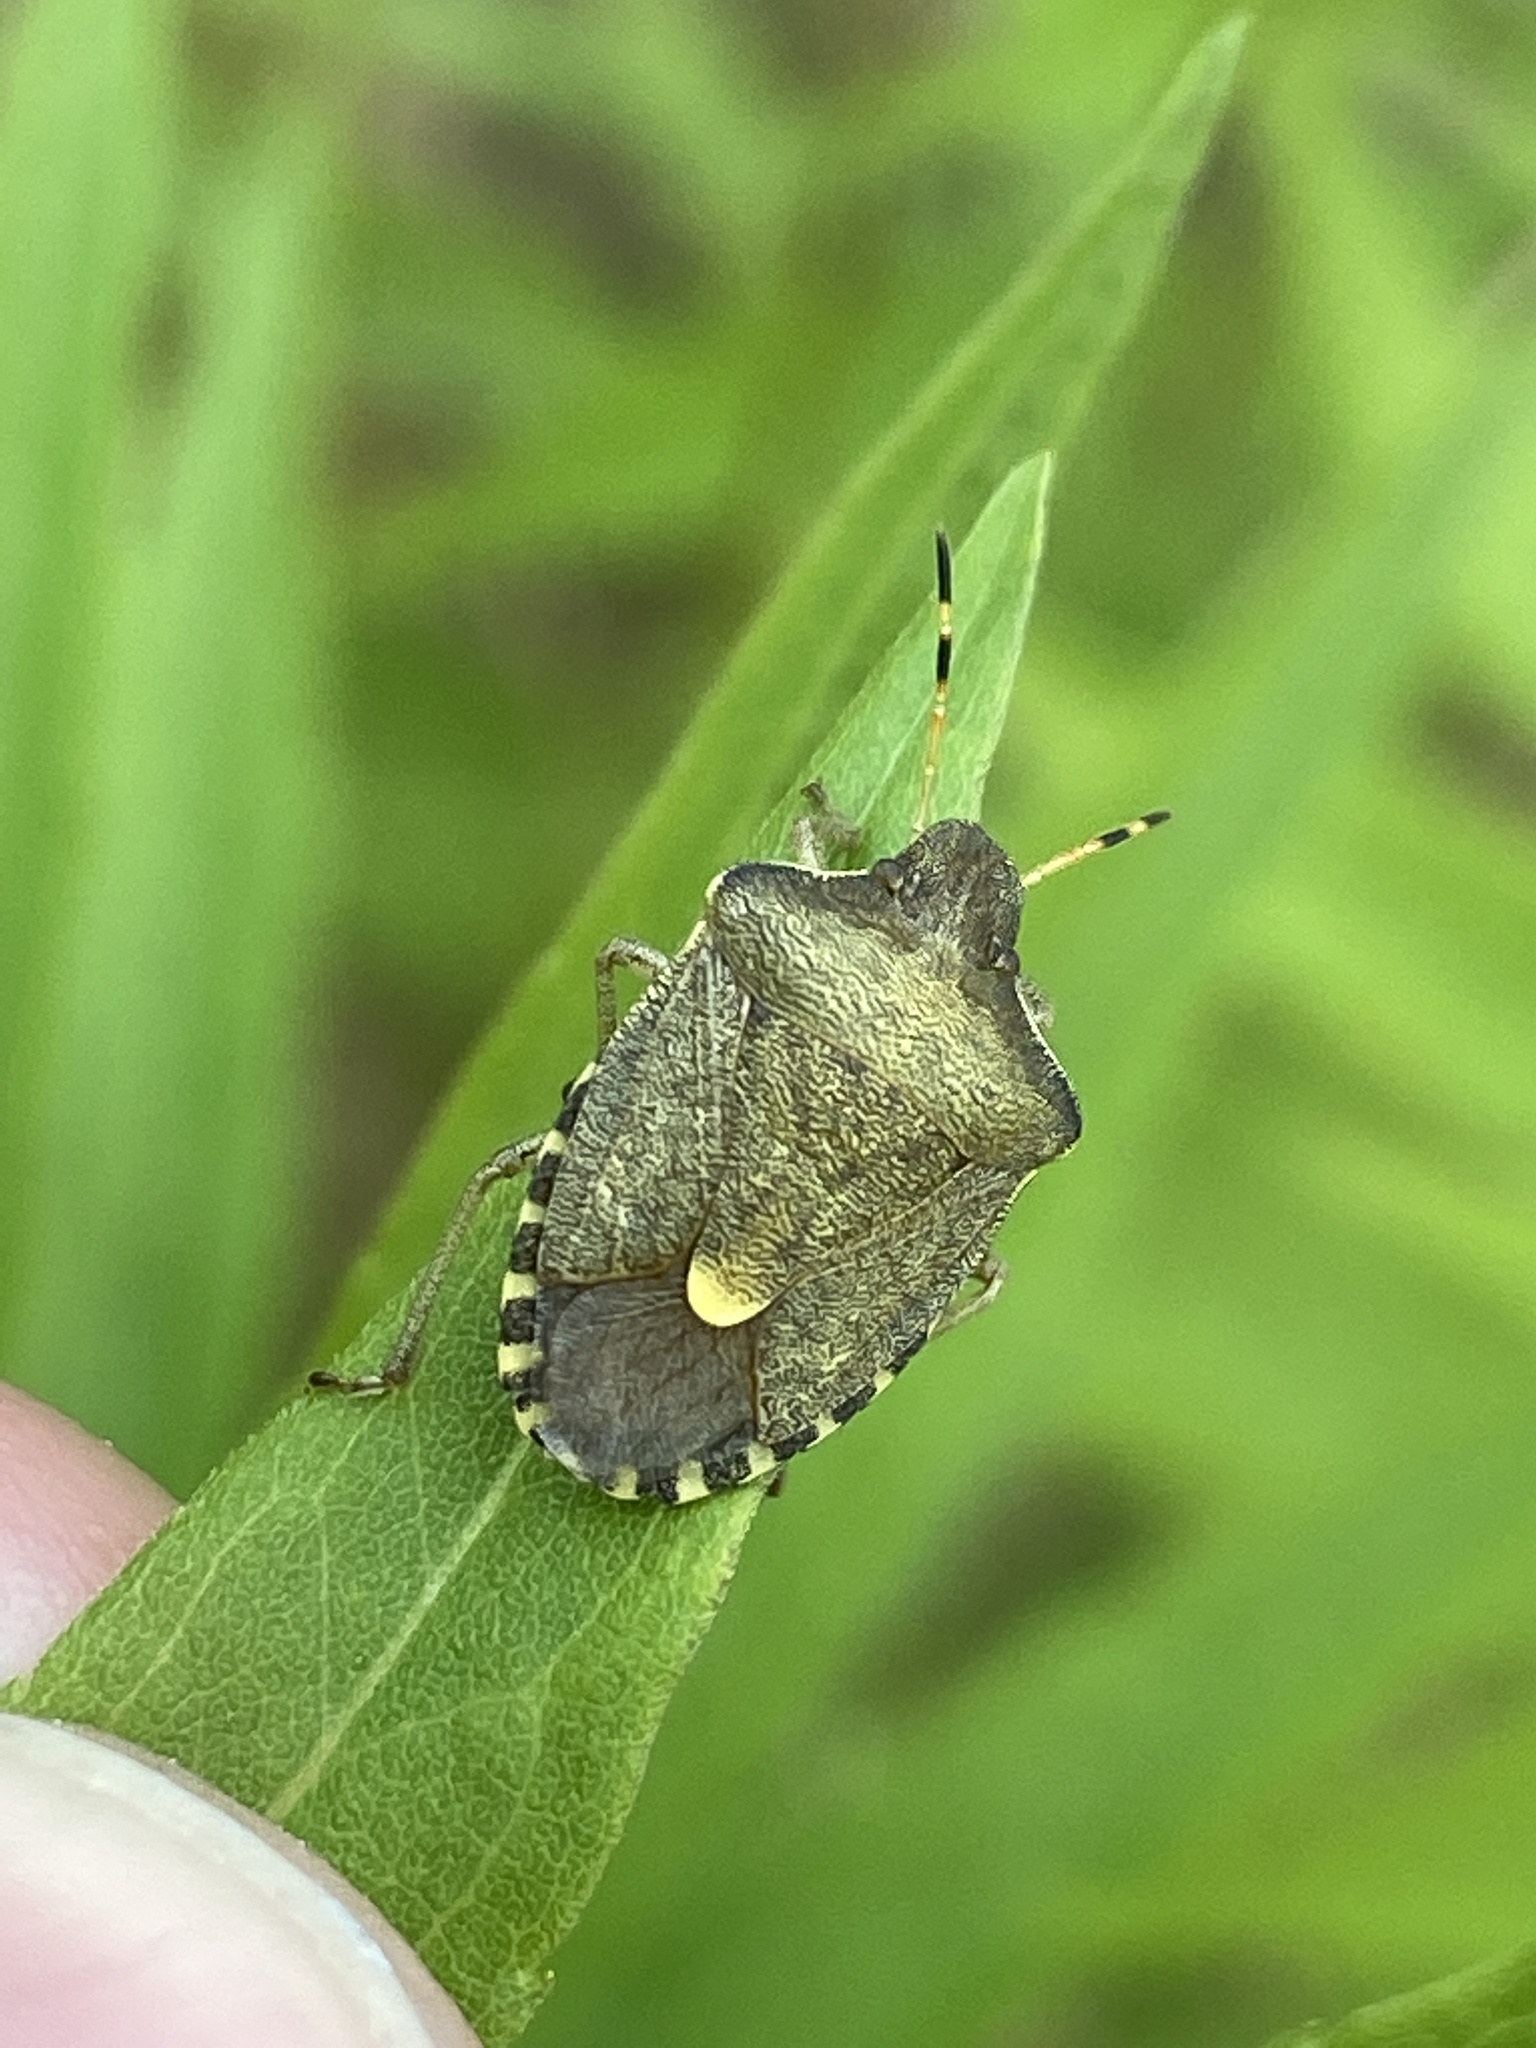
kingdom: Animalia
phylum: Arthropoda
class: Insecta
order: Hemiptera
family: Pentatomidae
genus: Holcostethus
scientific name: Holcostethus strictus
